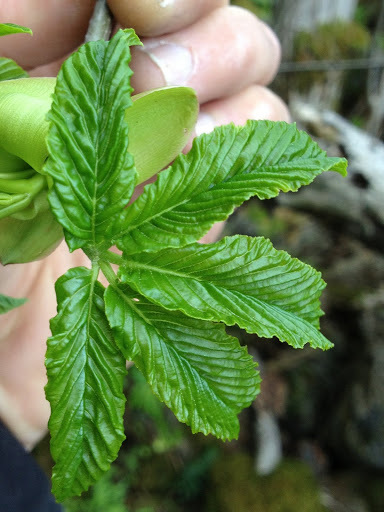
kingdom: Plantae
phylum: Tracheophyta
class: Magnoliopsida
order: Sapindales
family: Sapindaceae
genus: Aesculus
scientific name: Aesculus californica
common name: California buckeye
